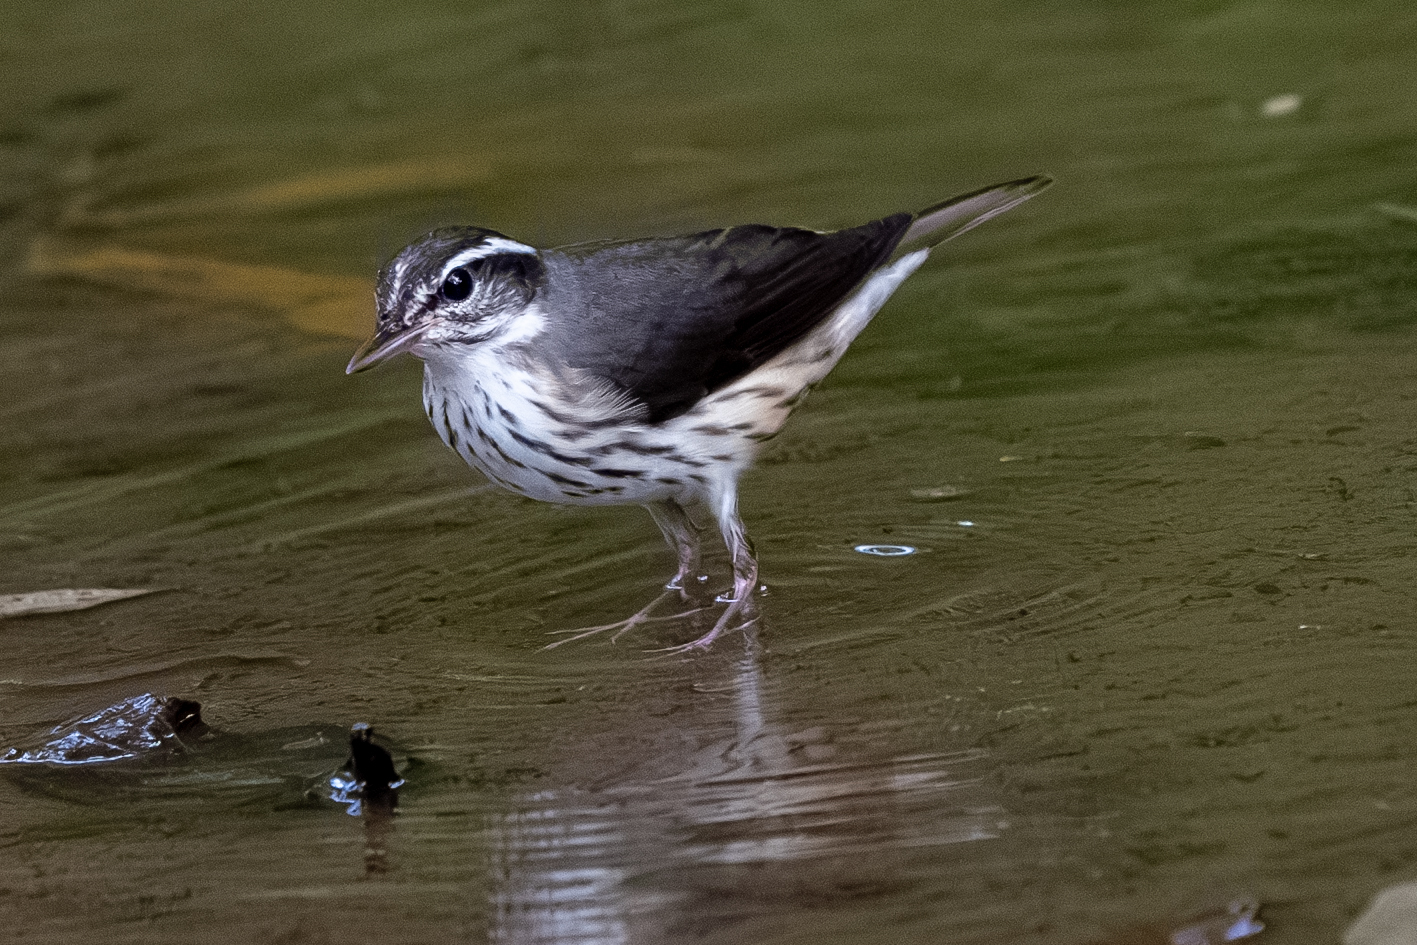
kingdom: Animalia
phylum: Chordata
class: Aves
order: Passeriformes
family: Parulidae
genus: Parkesia
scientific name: Parkesia motacilla
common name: Louisiana waterthrush
